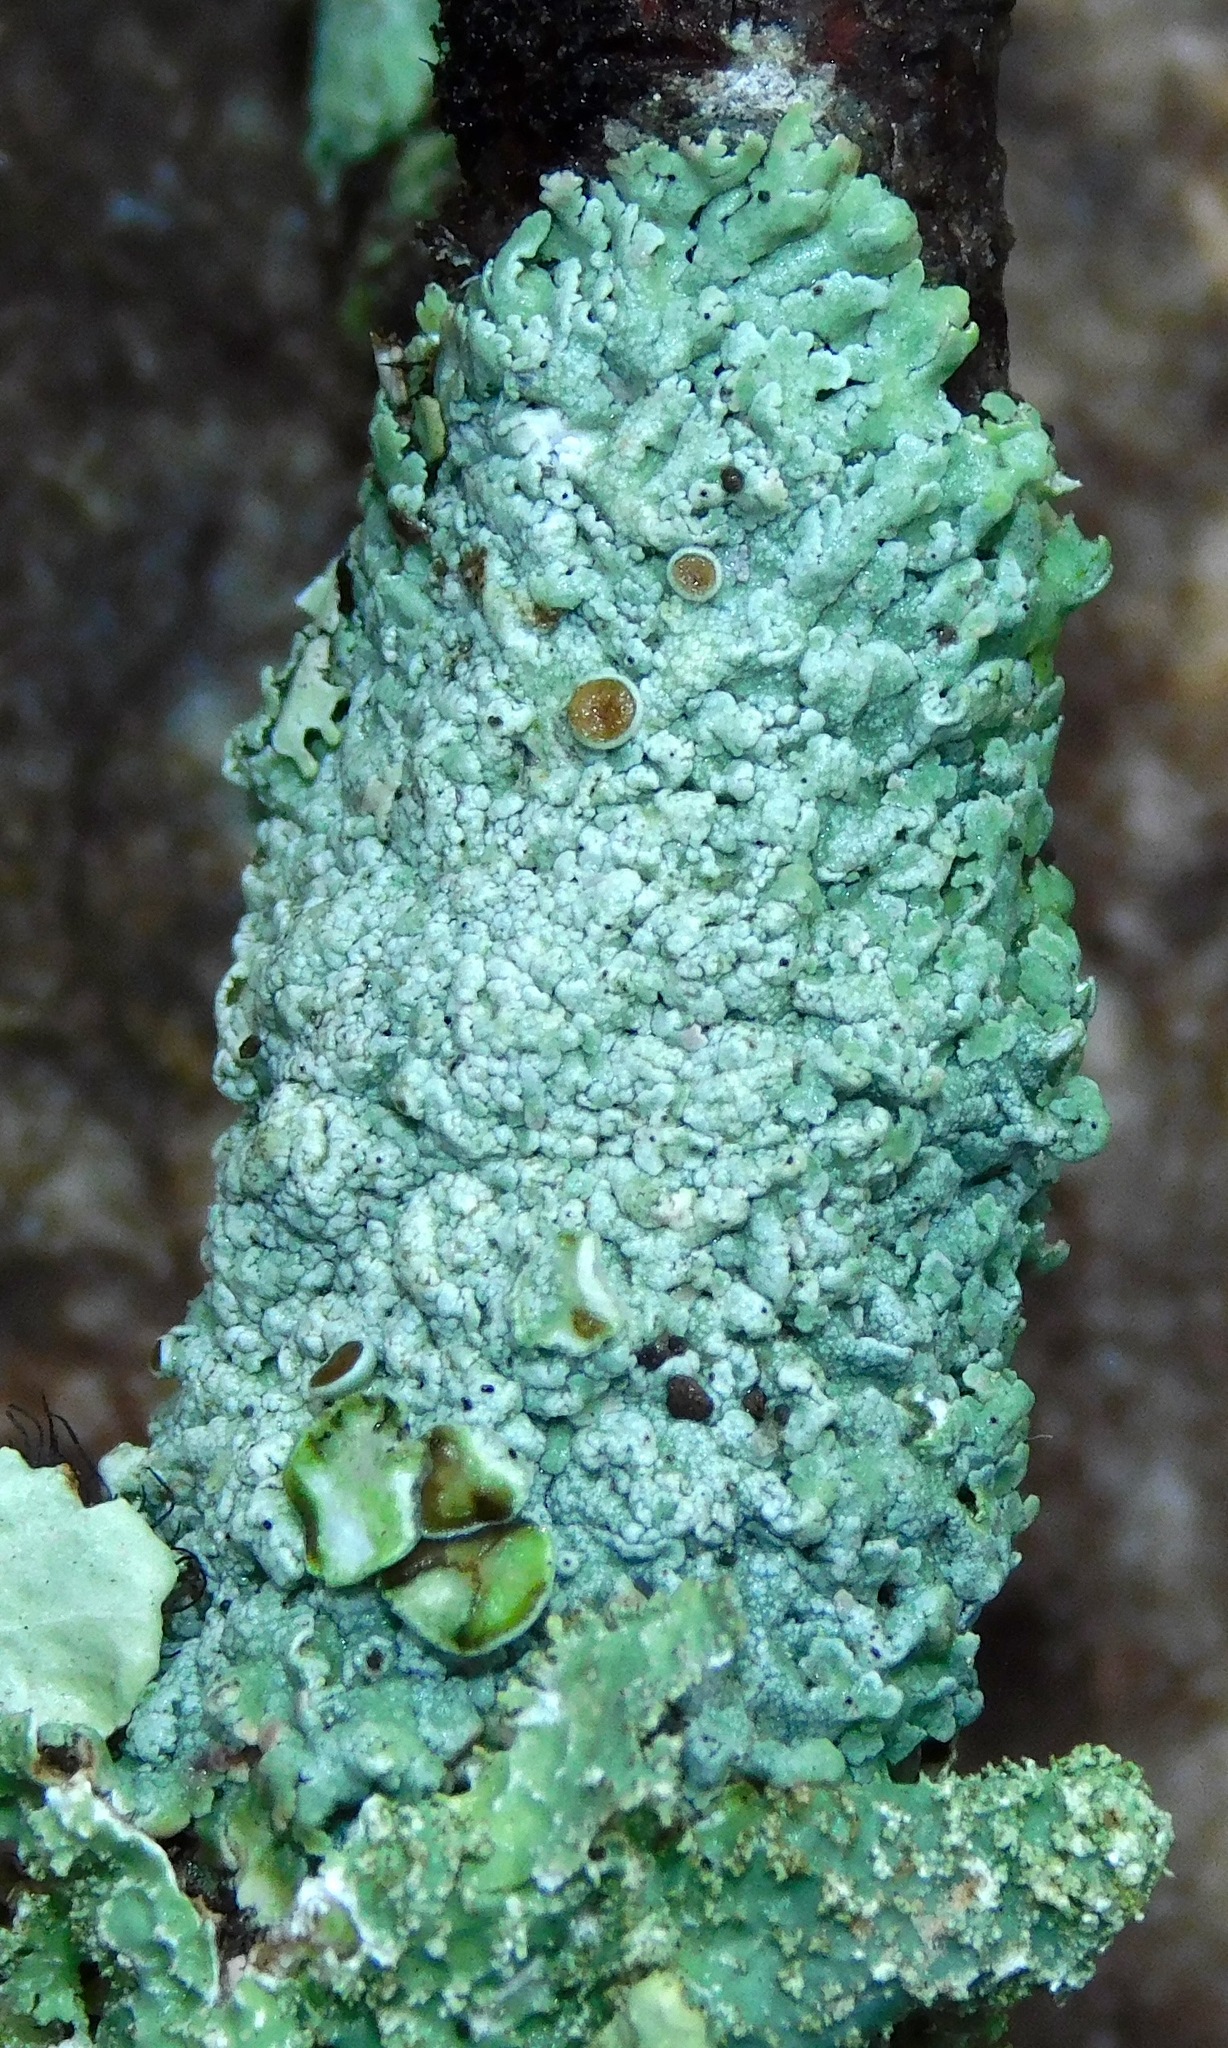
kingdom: Fungi
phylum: Ascomycota
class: Lecanoromycetes
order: Caliciales
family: Physciaceae
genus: Physcia
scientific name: Physcia pumilior
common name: Lesser gray legs
